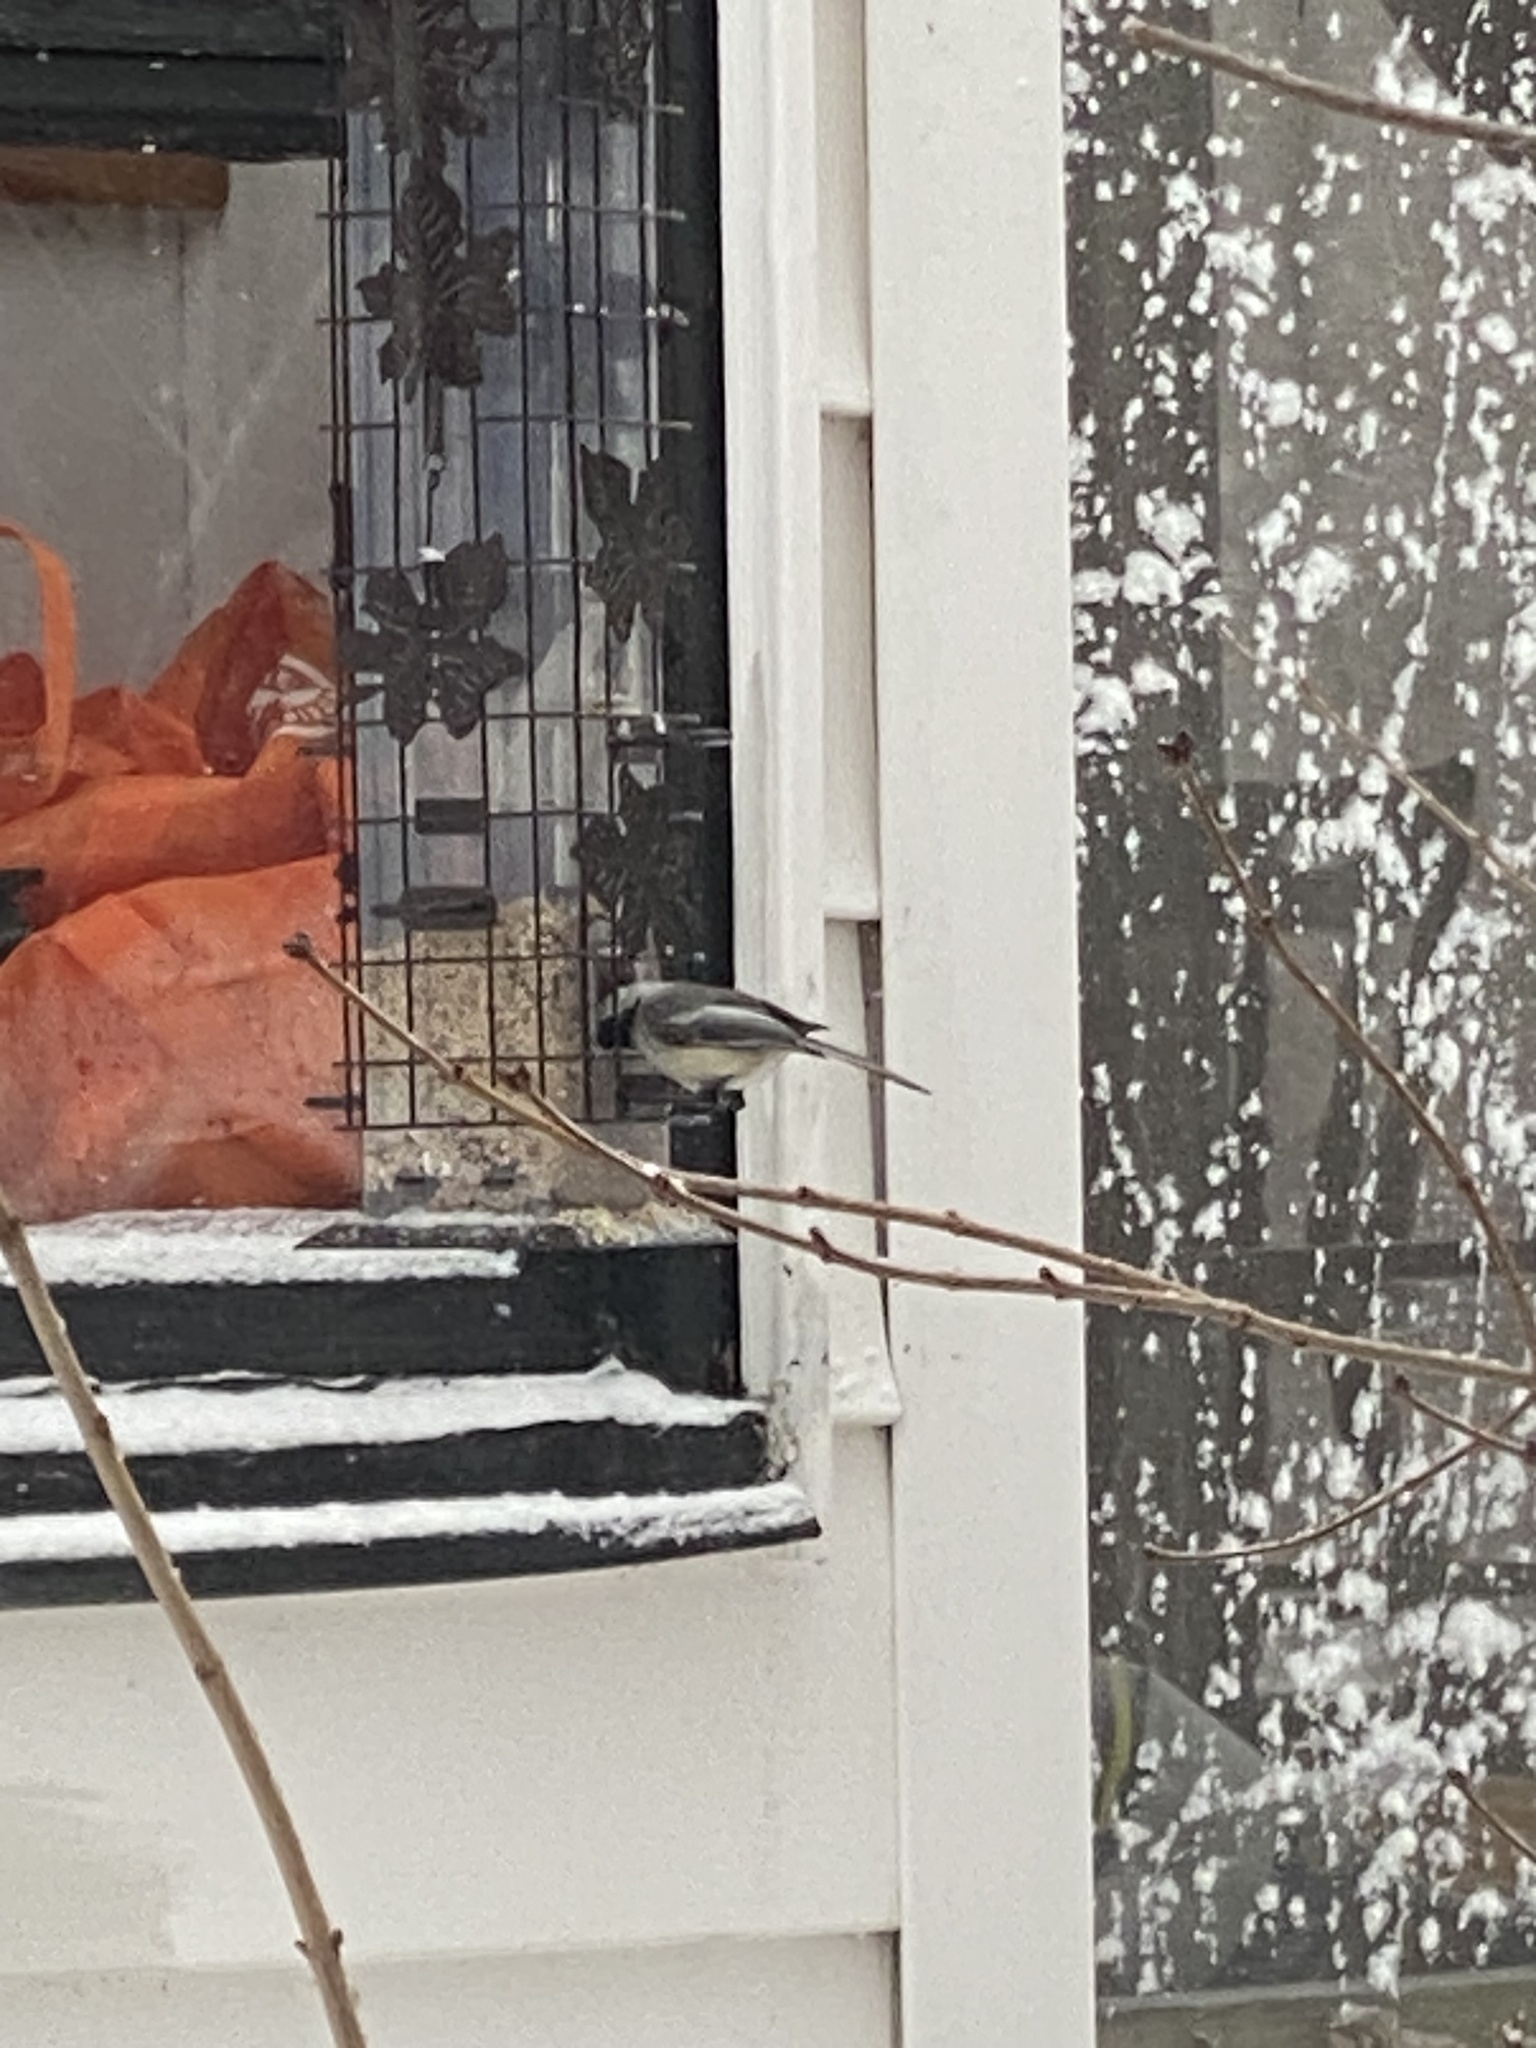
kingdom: Animalia
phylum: Chordata
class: Aves
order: Passeriformes
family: Paridae
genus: Poecile
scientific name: Poecile atricapillus
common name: Black-capped chickadee
